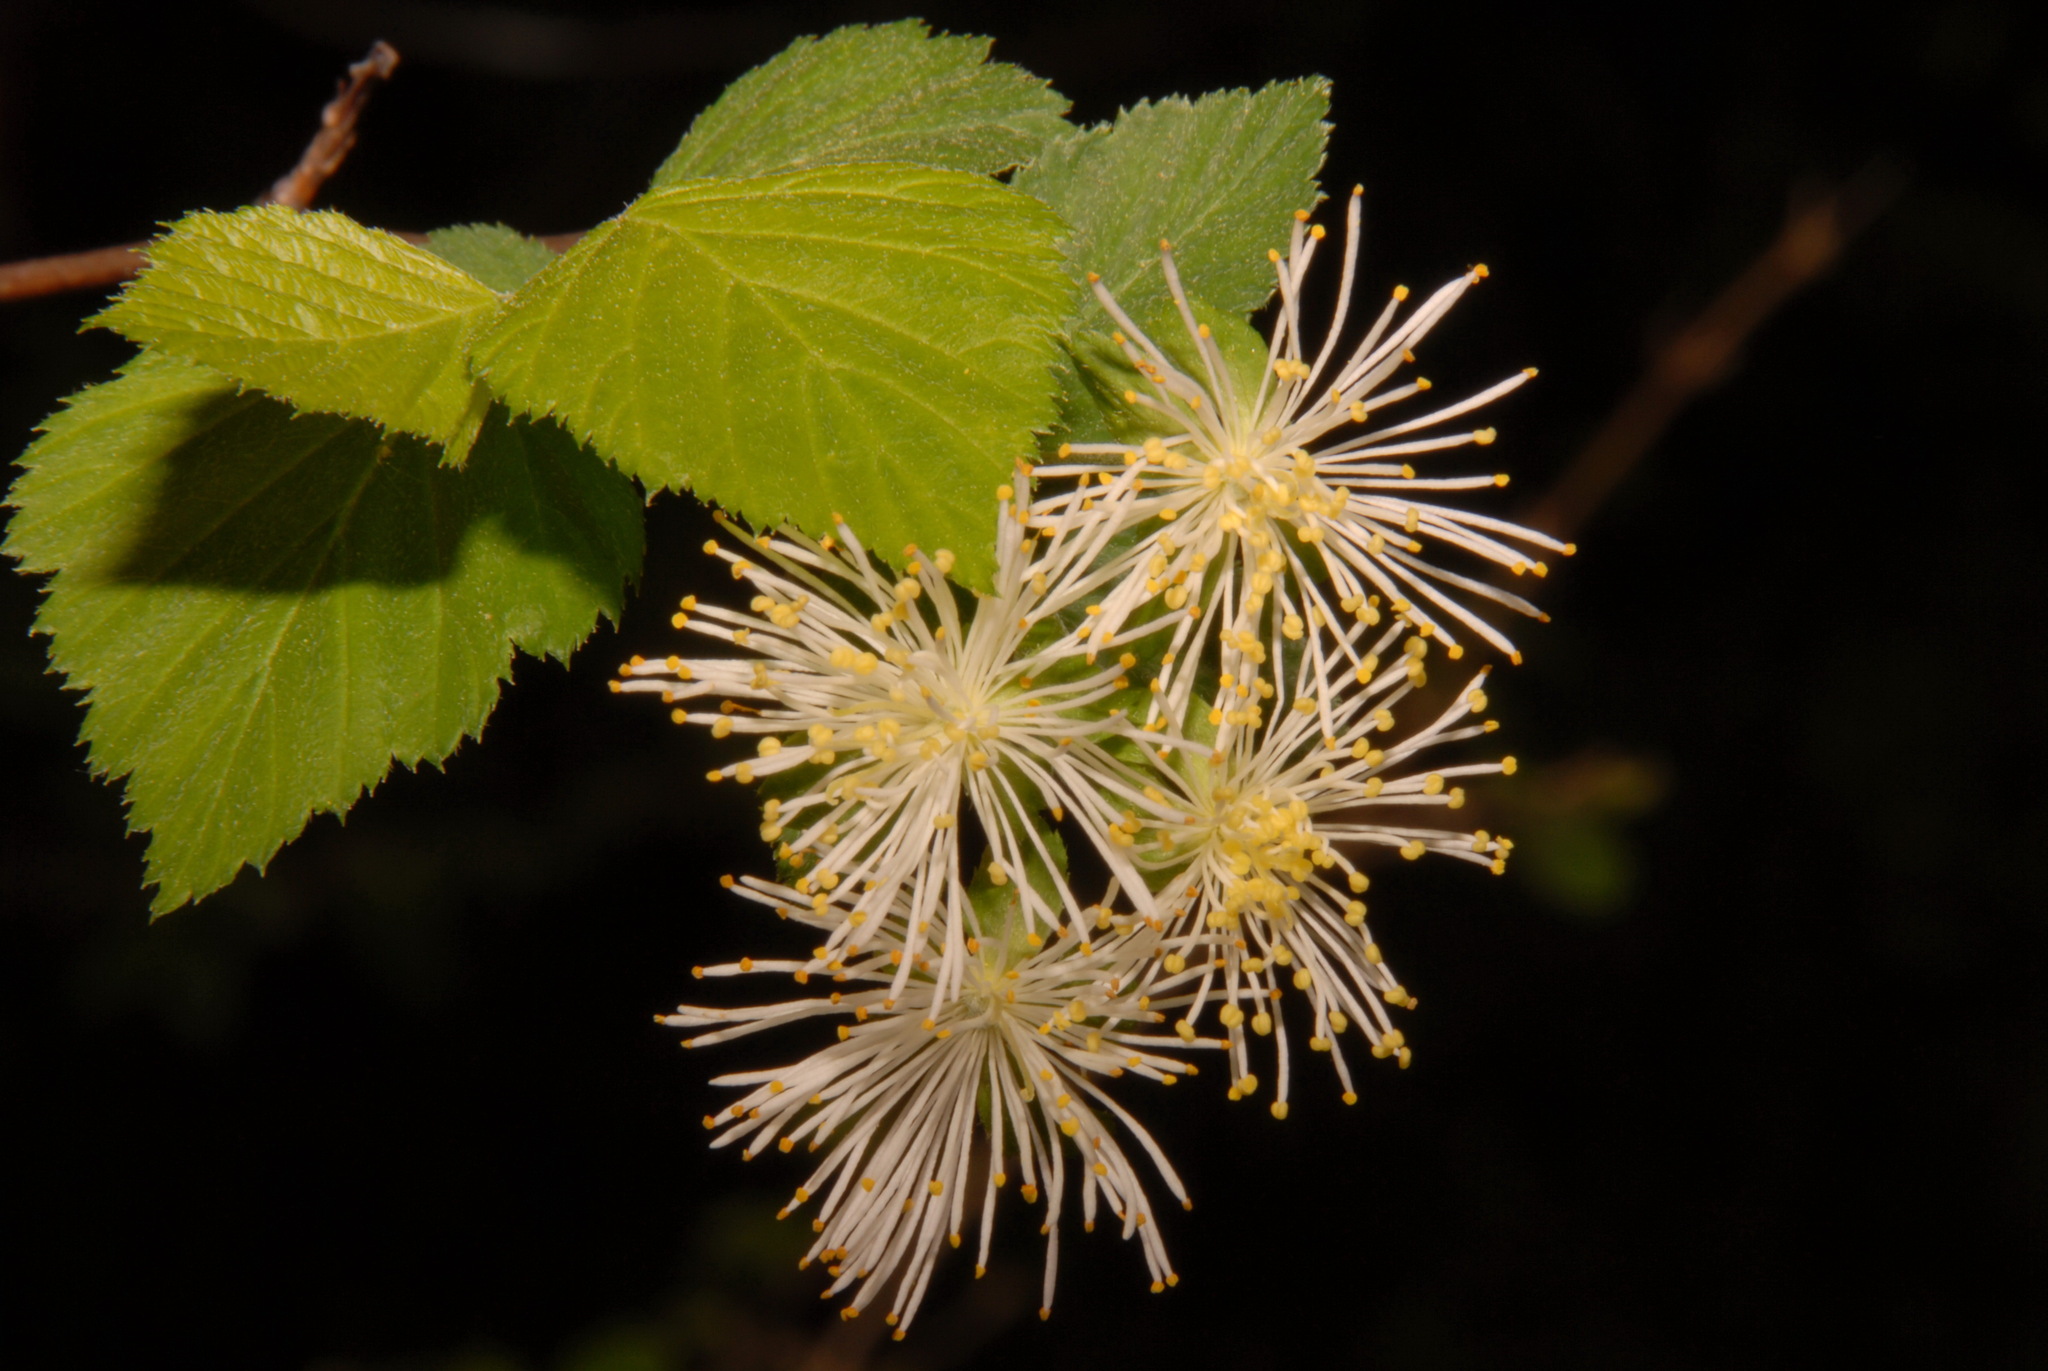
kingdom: Plantae
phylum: Tracheophyta
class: Magnoliopsida
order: Rosales
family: Rosaceae
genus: Neviusia
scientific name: Neviusia alabamensis
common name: Snow-wreath
